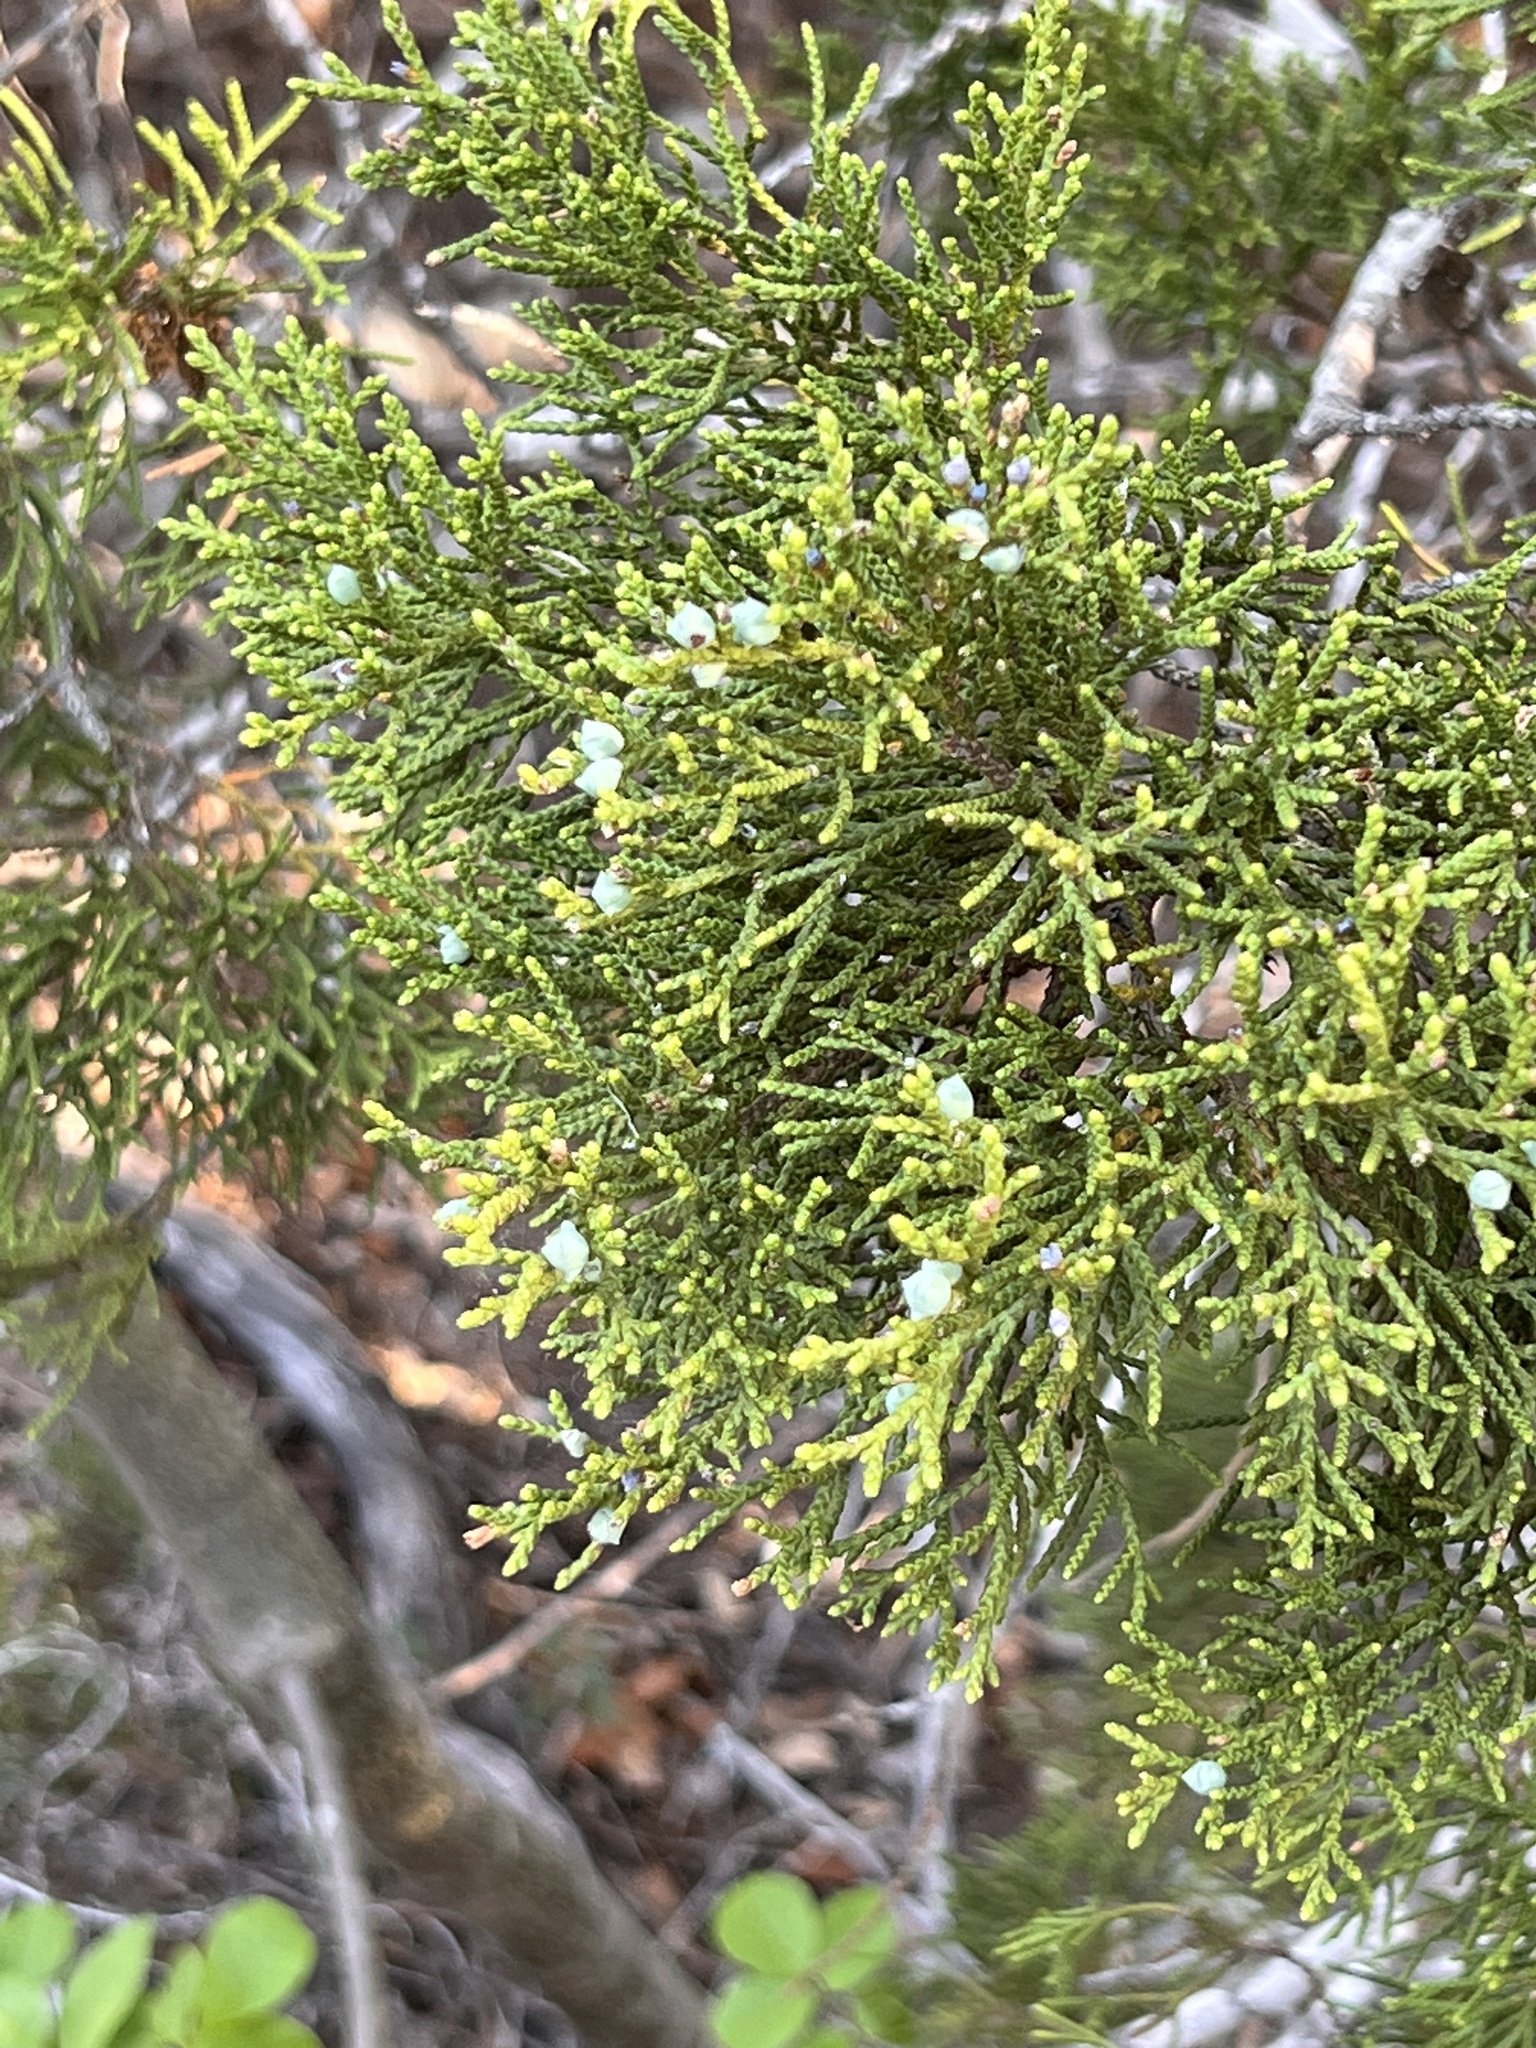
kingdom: Plantae
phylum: Tracheophyta
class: Pinopsida
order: Pinales
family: Cupressaceae
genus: Juniperus
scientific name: Juniperus ashei
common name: Mexican juniper
